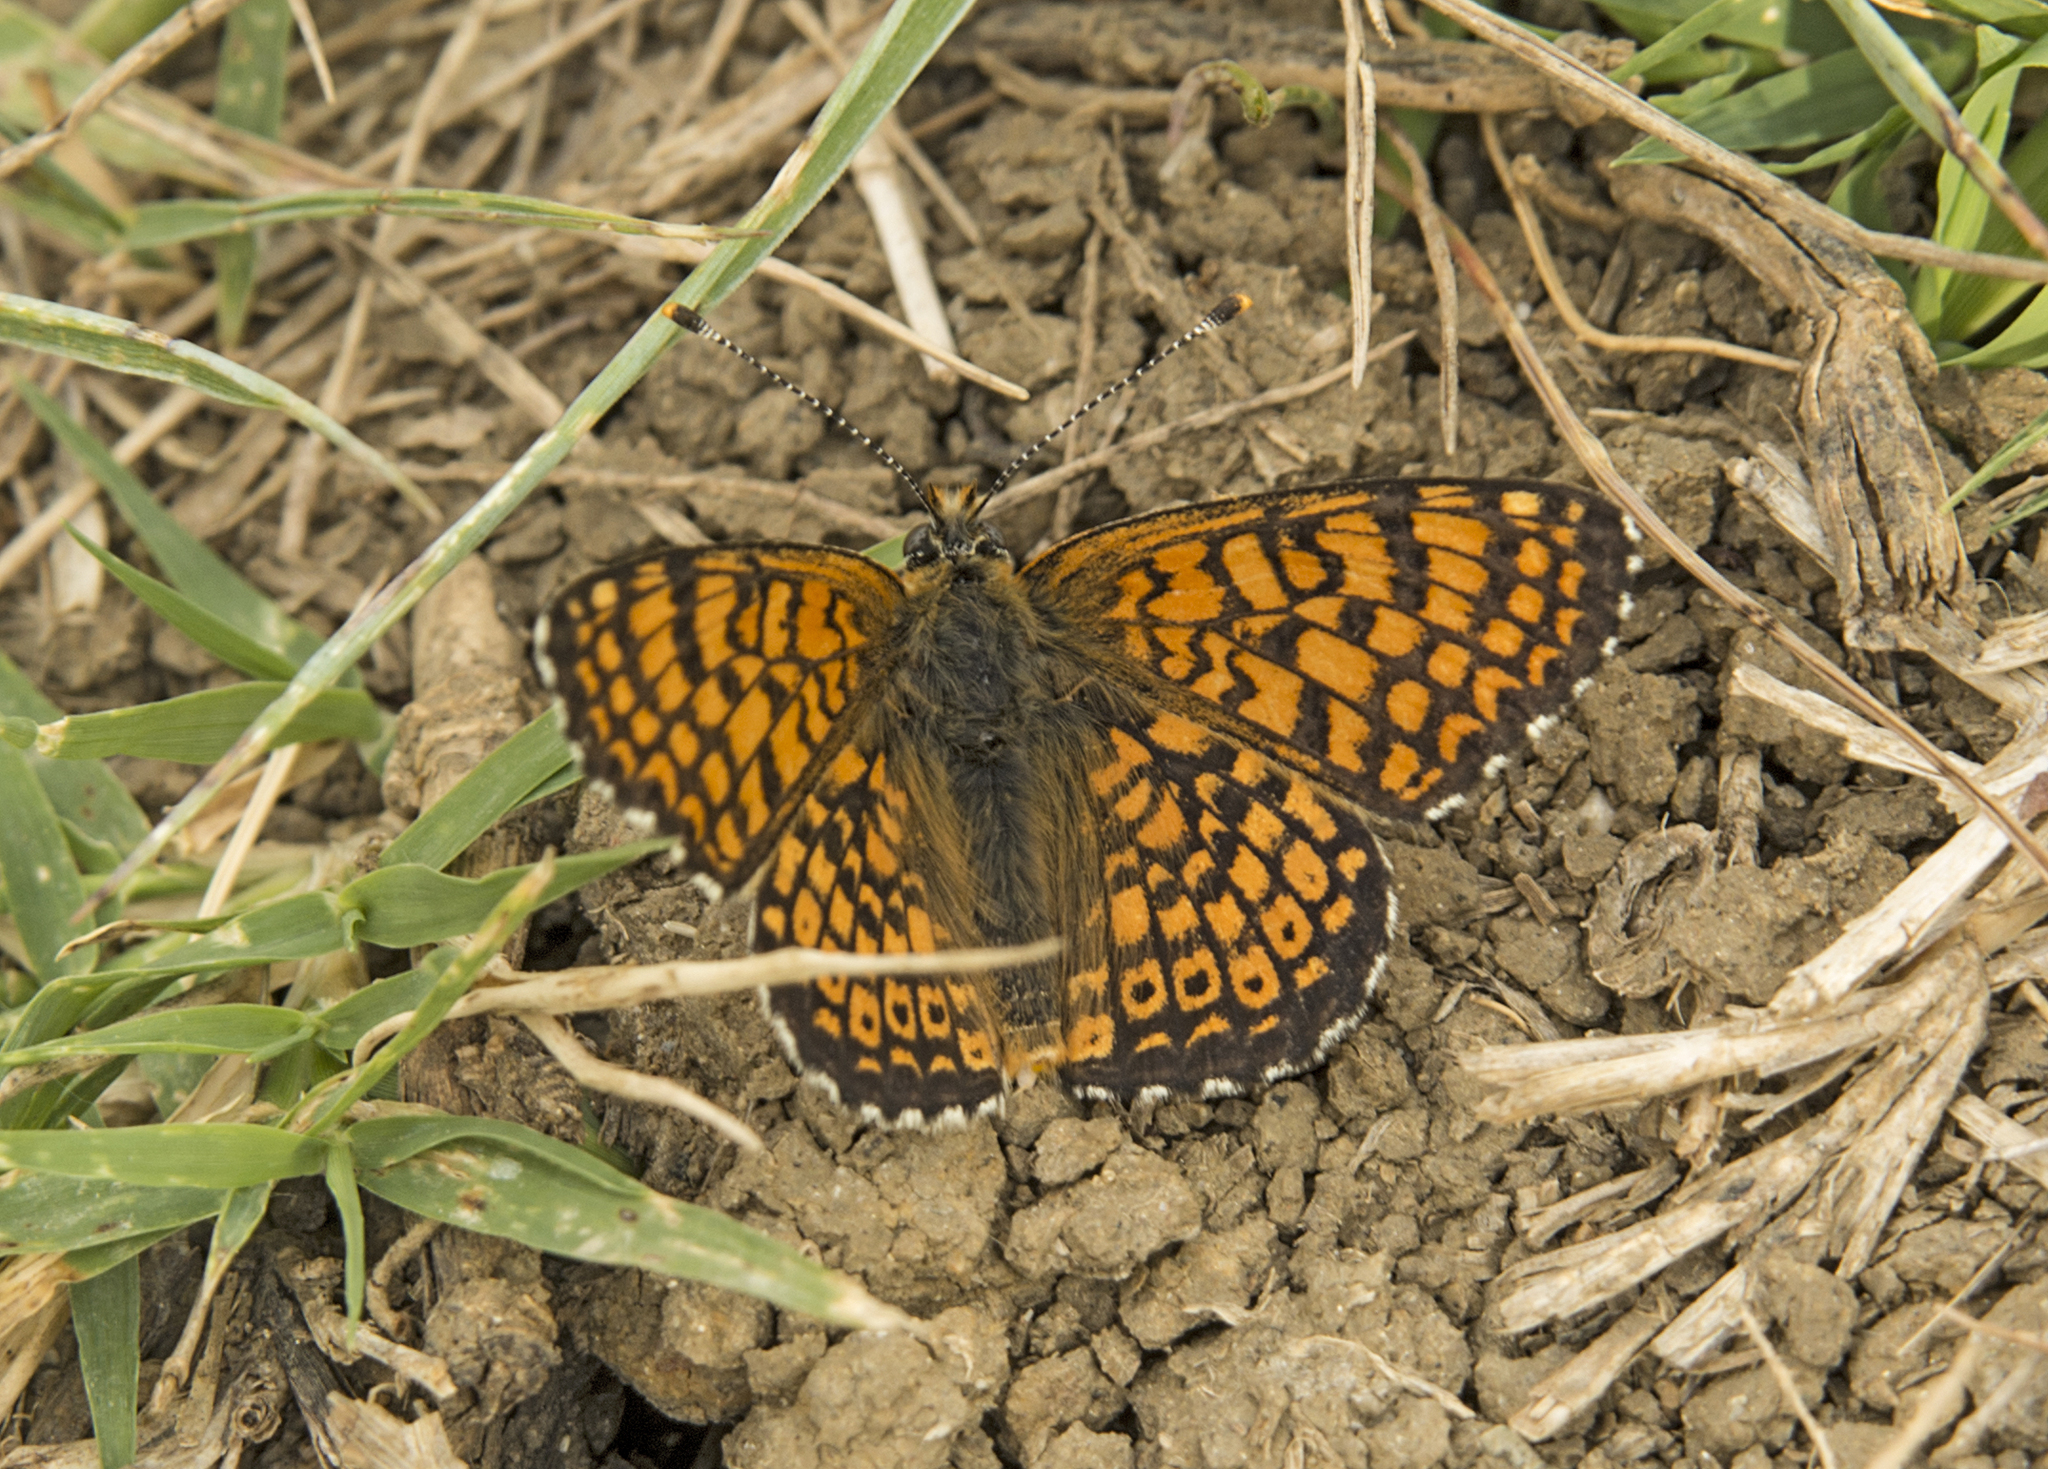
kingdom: Animalia
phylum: Arthropoda
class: Insecta
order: Lepidoptera
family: Nymphalidae
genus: Melitaea
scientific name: Melitaea cinxia
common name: Glanville fritillary
